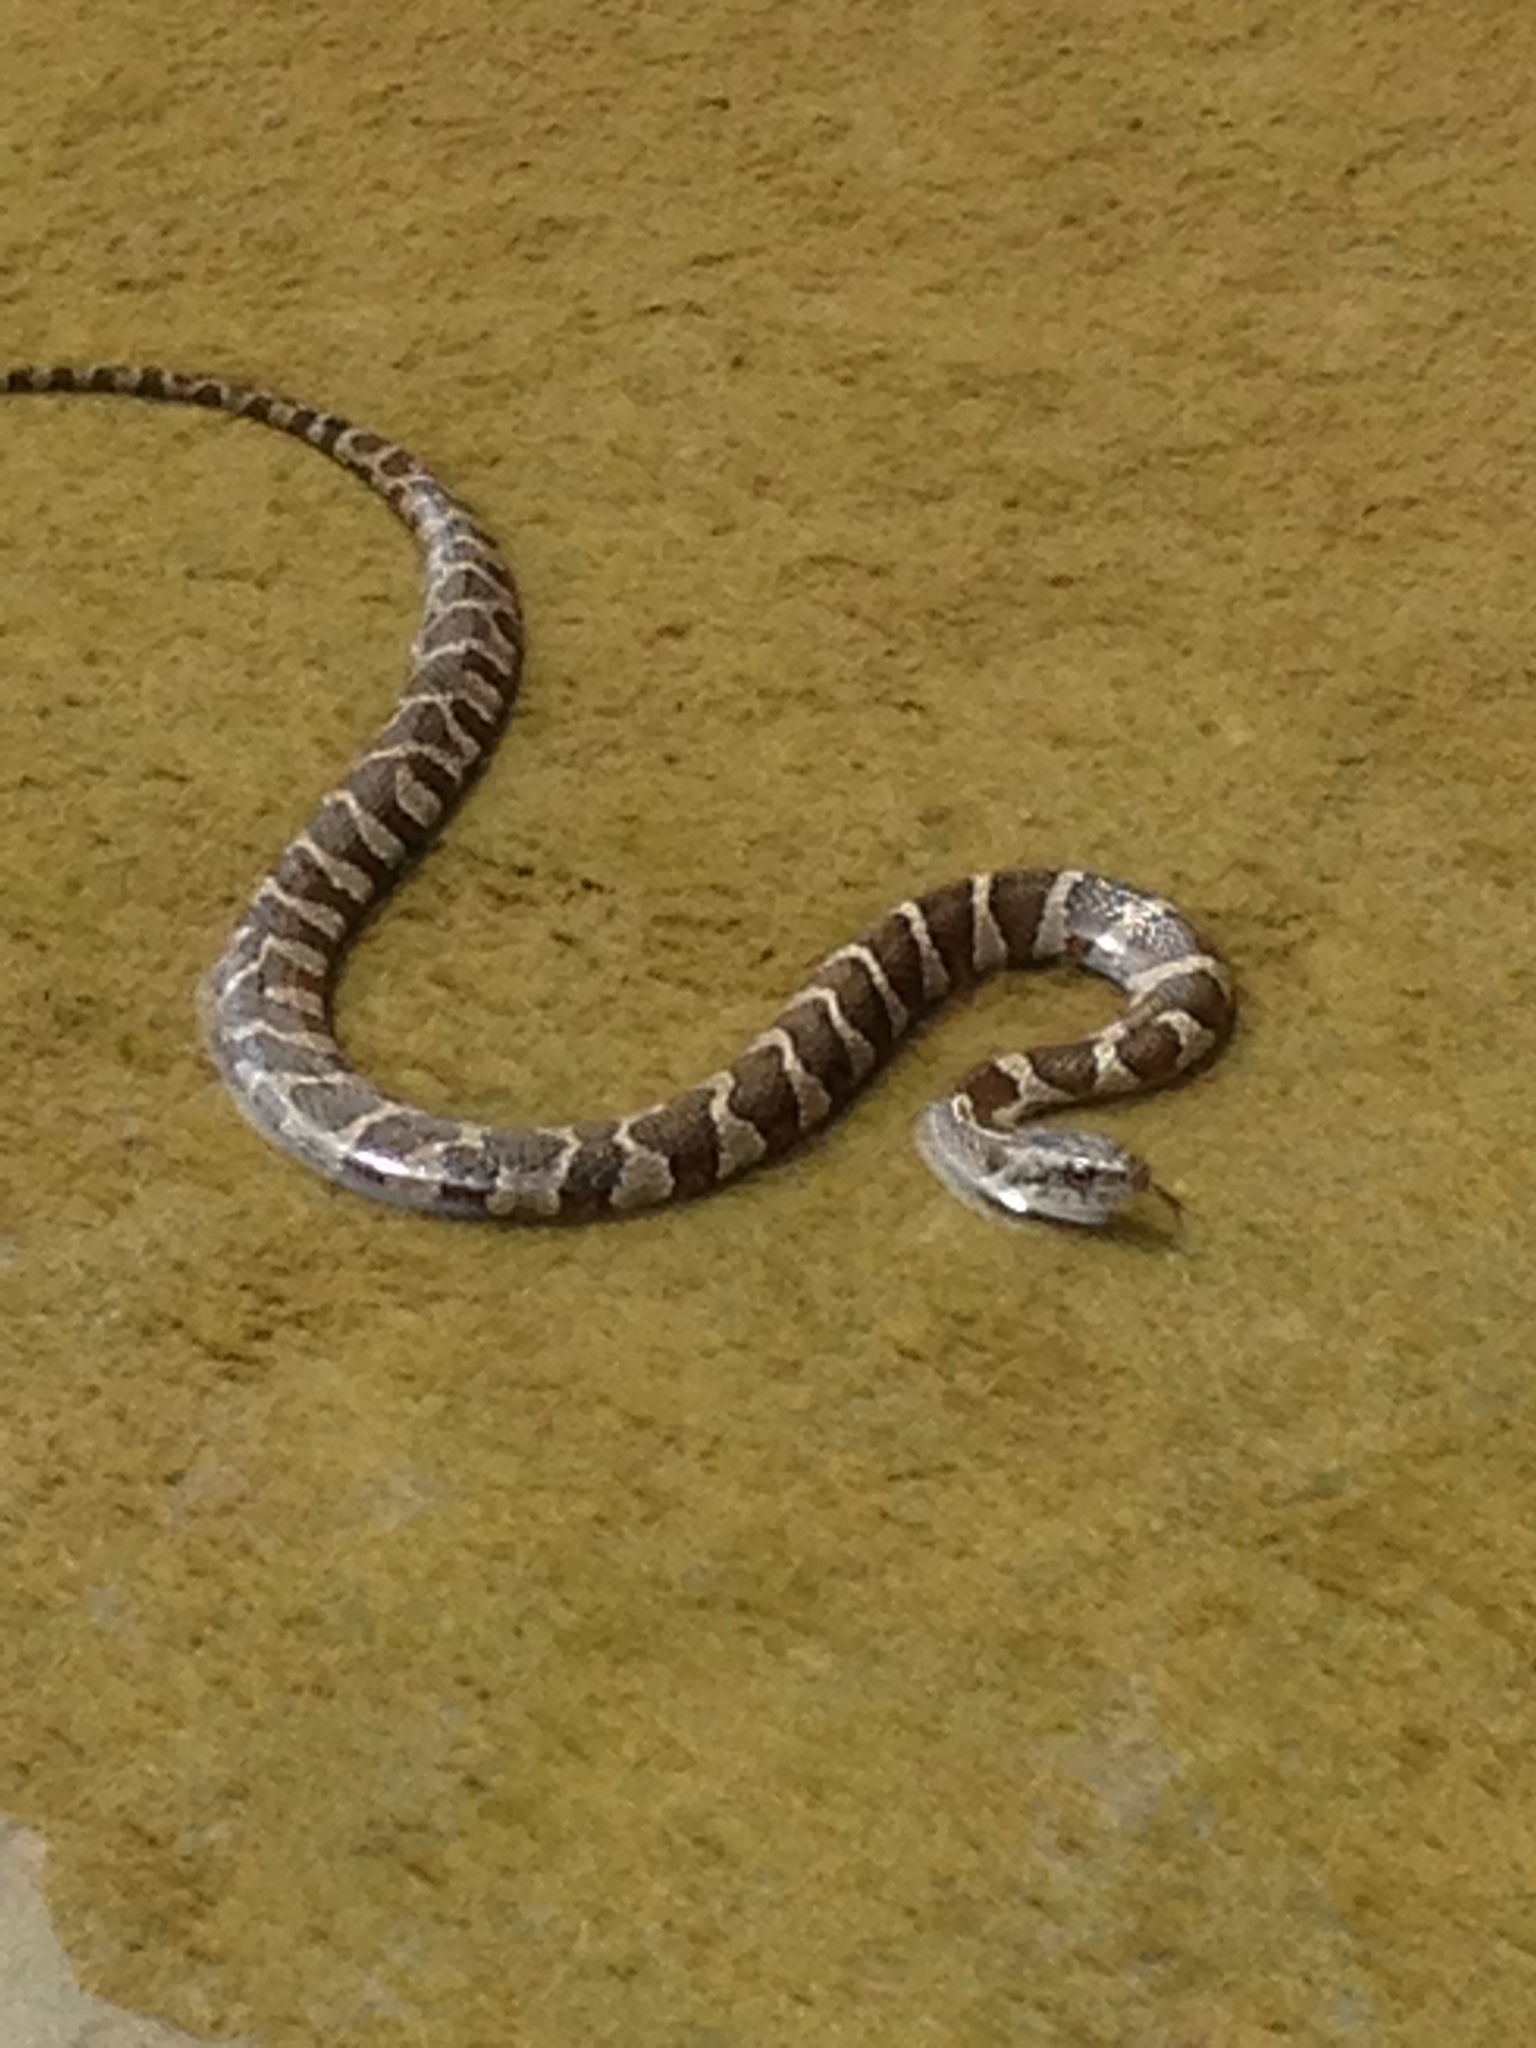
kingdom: Animalia
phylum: Chordata
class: Squamata
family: Colubridae
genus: Nerodia
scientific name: Nerodia sipedon
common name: Northern water snake
